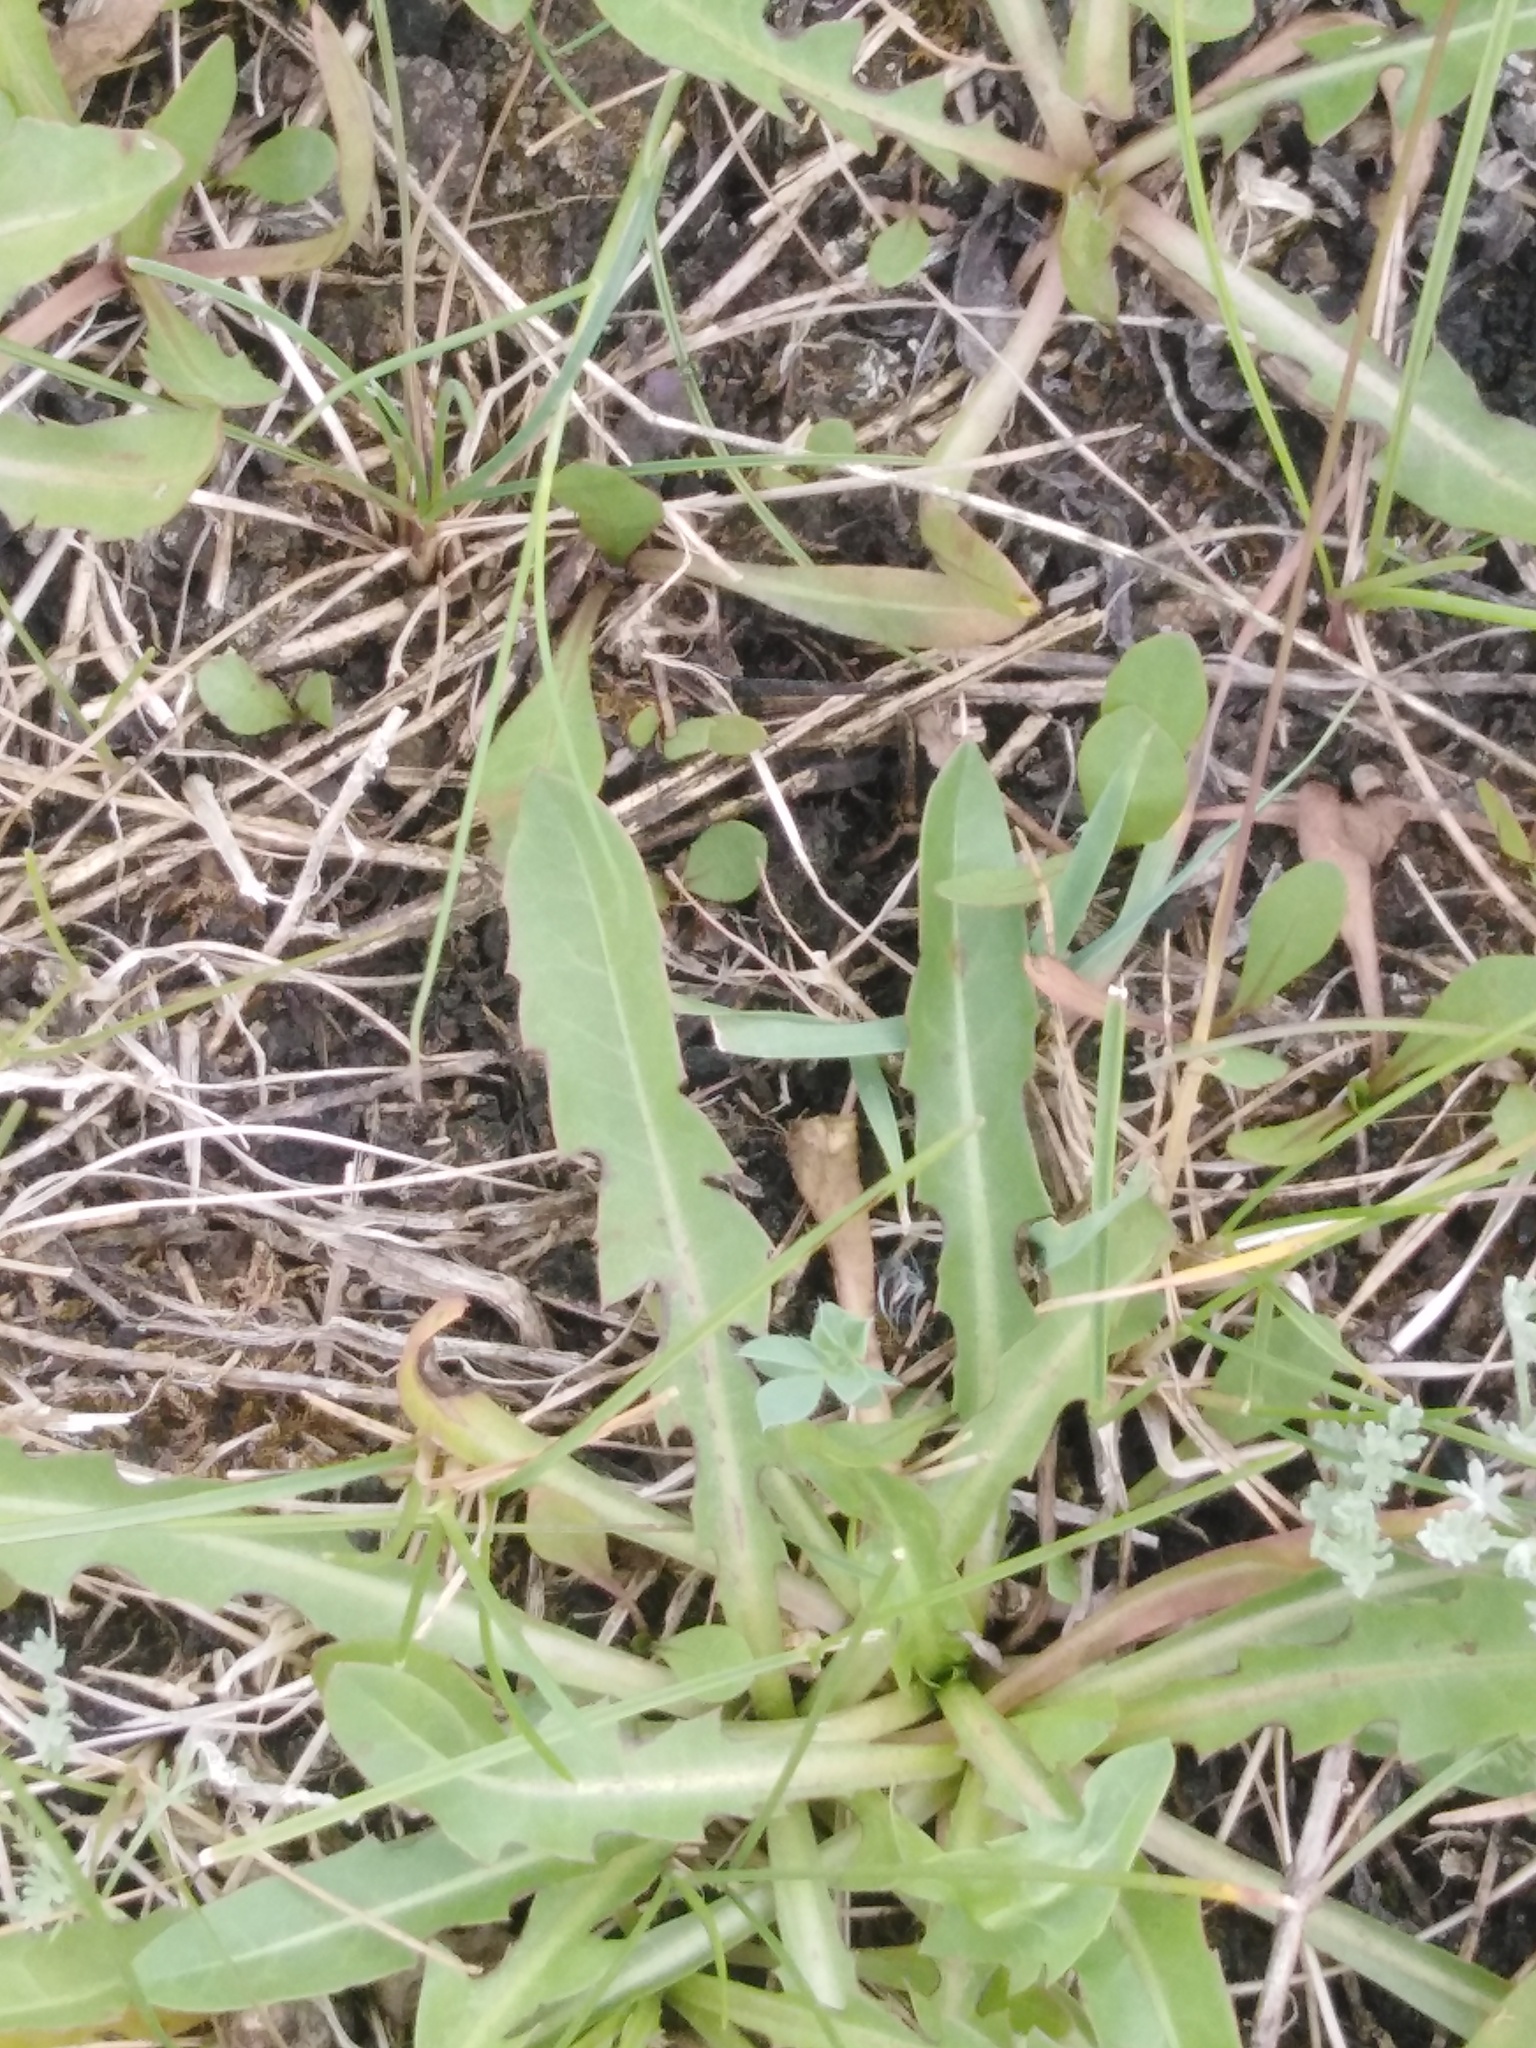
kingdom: Plantae
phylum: Tracheophyta
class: Magnoliopsida
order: Asterales
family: Asteraceae
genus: Taraxacum
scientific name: Taraxacum bessarabicum
